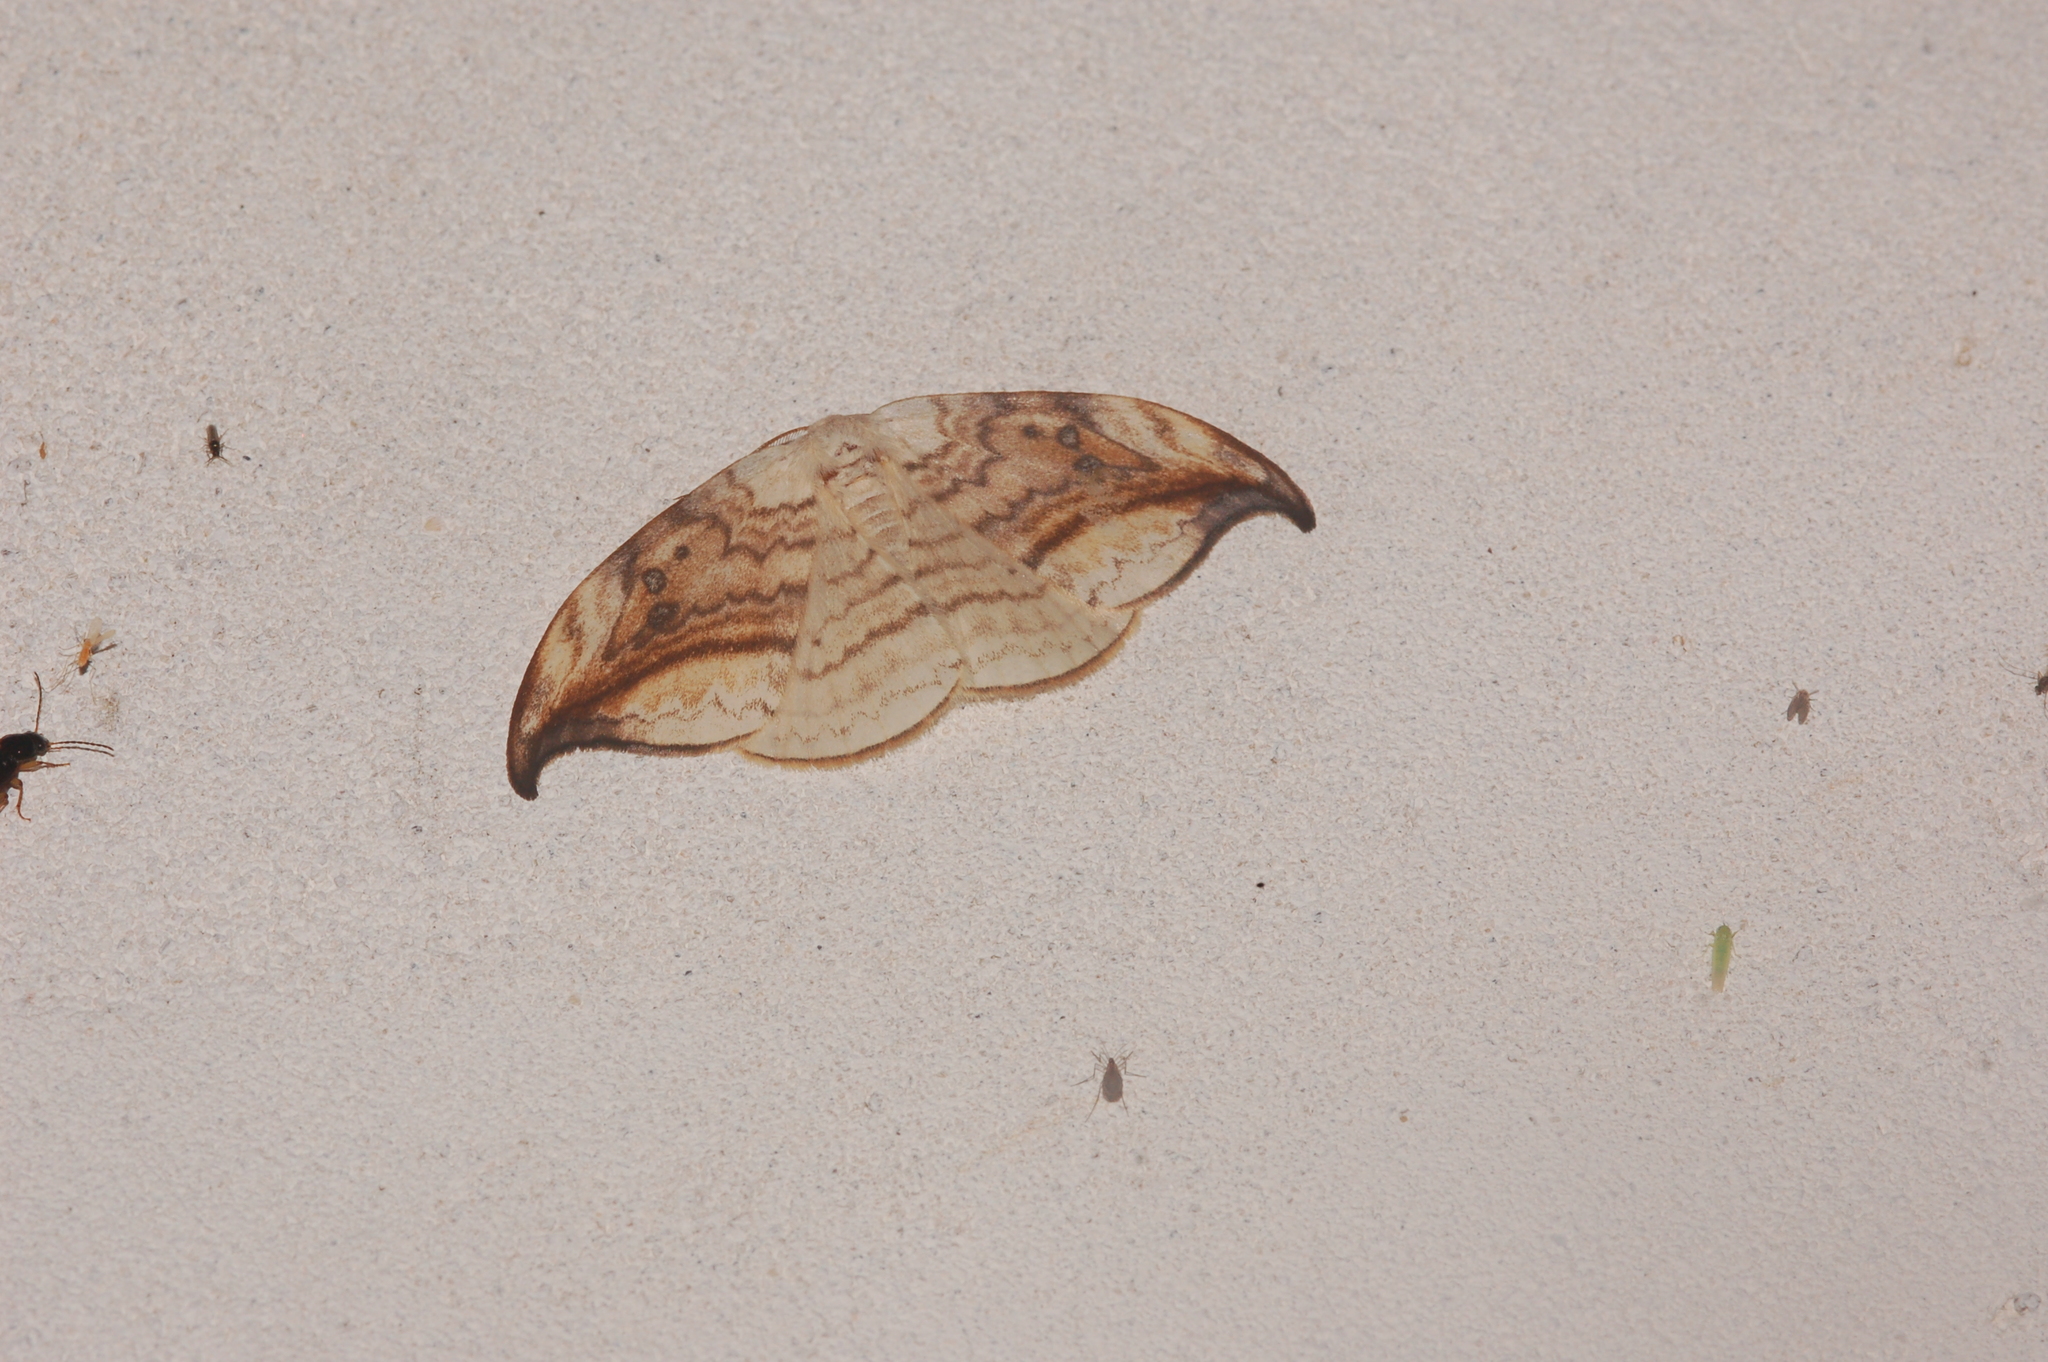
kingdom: Animalia
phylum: Arthropoda
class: Insecta
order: Lepidoptera
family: Drepanidae
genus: Drepana
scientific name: Drepana arcuata
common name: Arched hooktip moth
